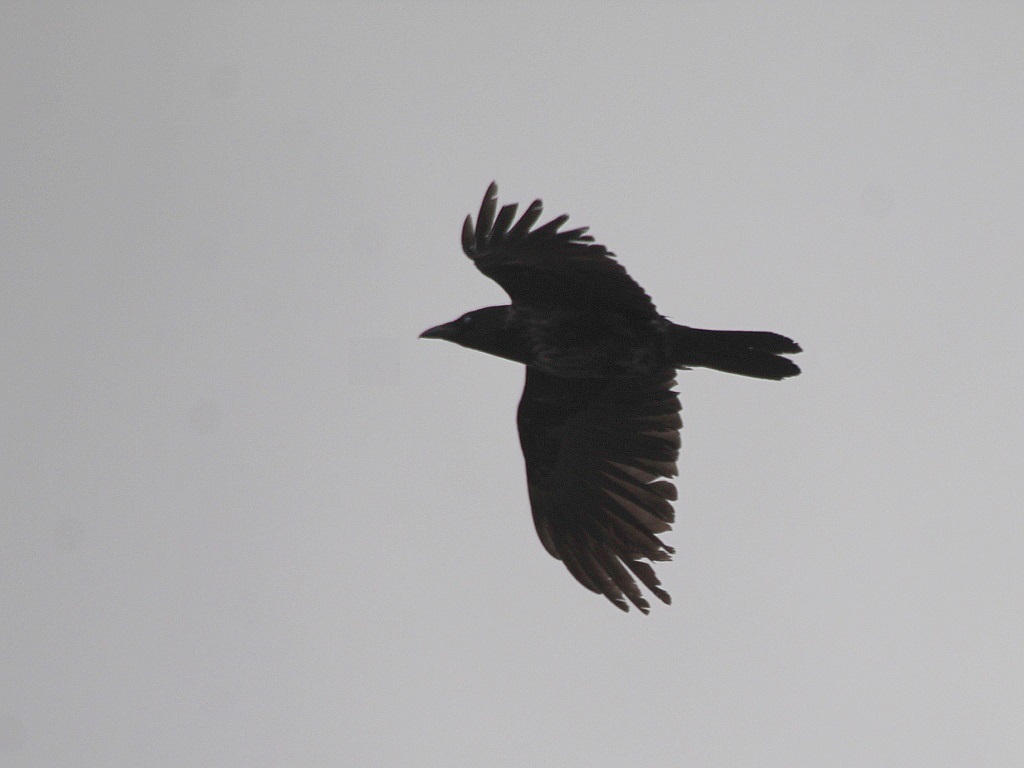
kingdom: Animalia
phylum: Chordata
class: Aves
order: Passeriformes
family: Corvidae
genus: Corvus
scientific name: Corvus
